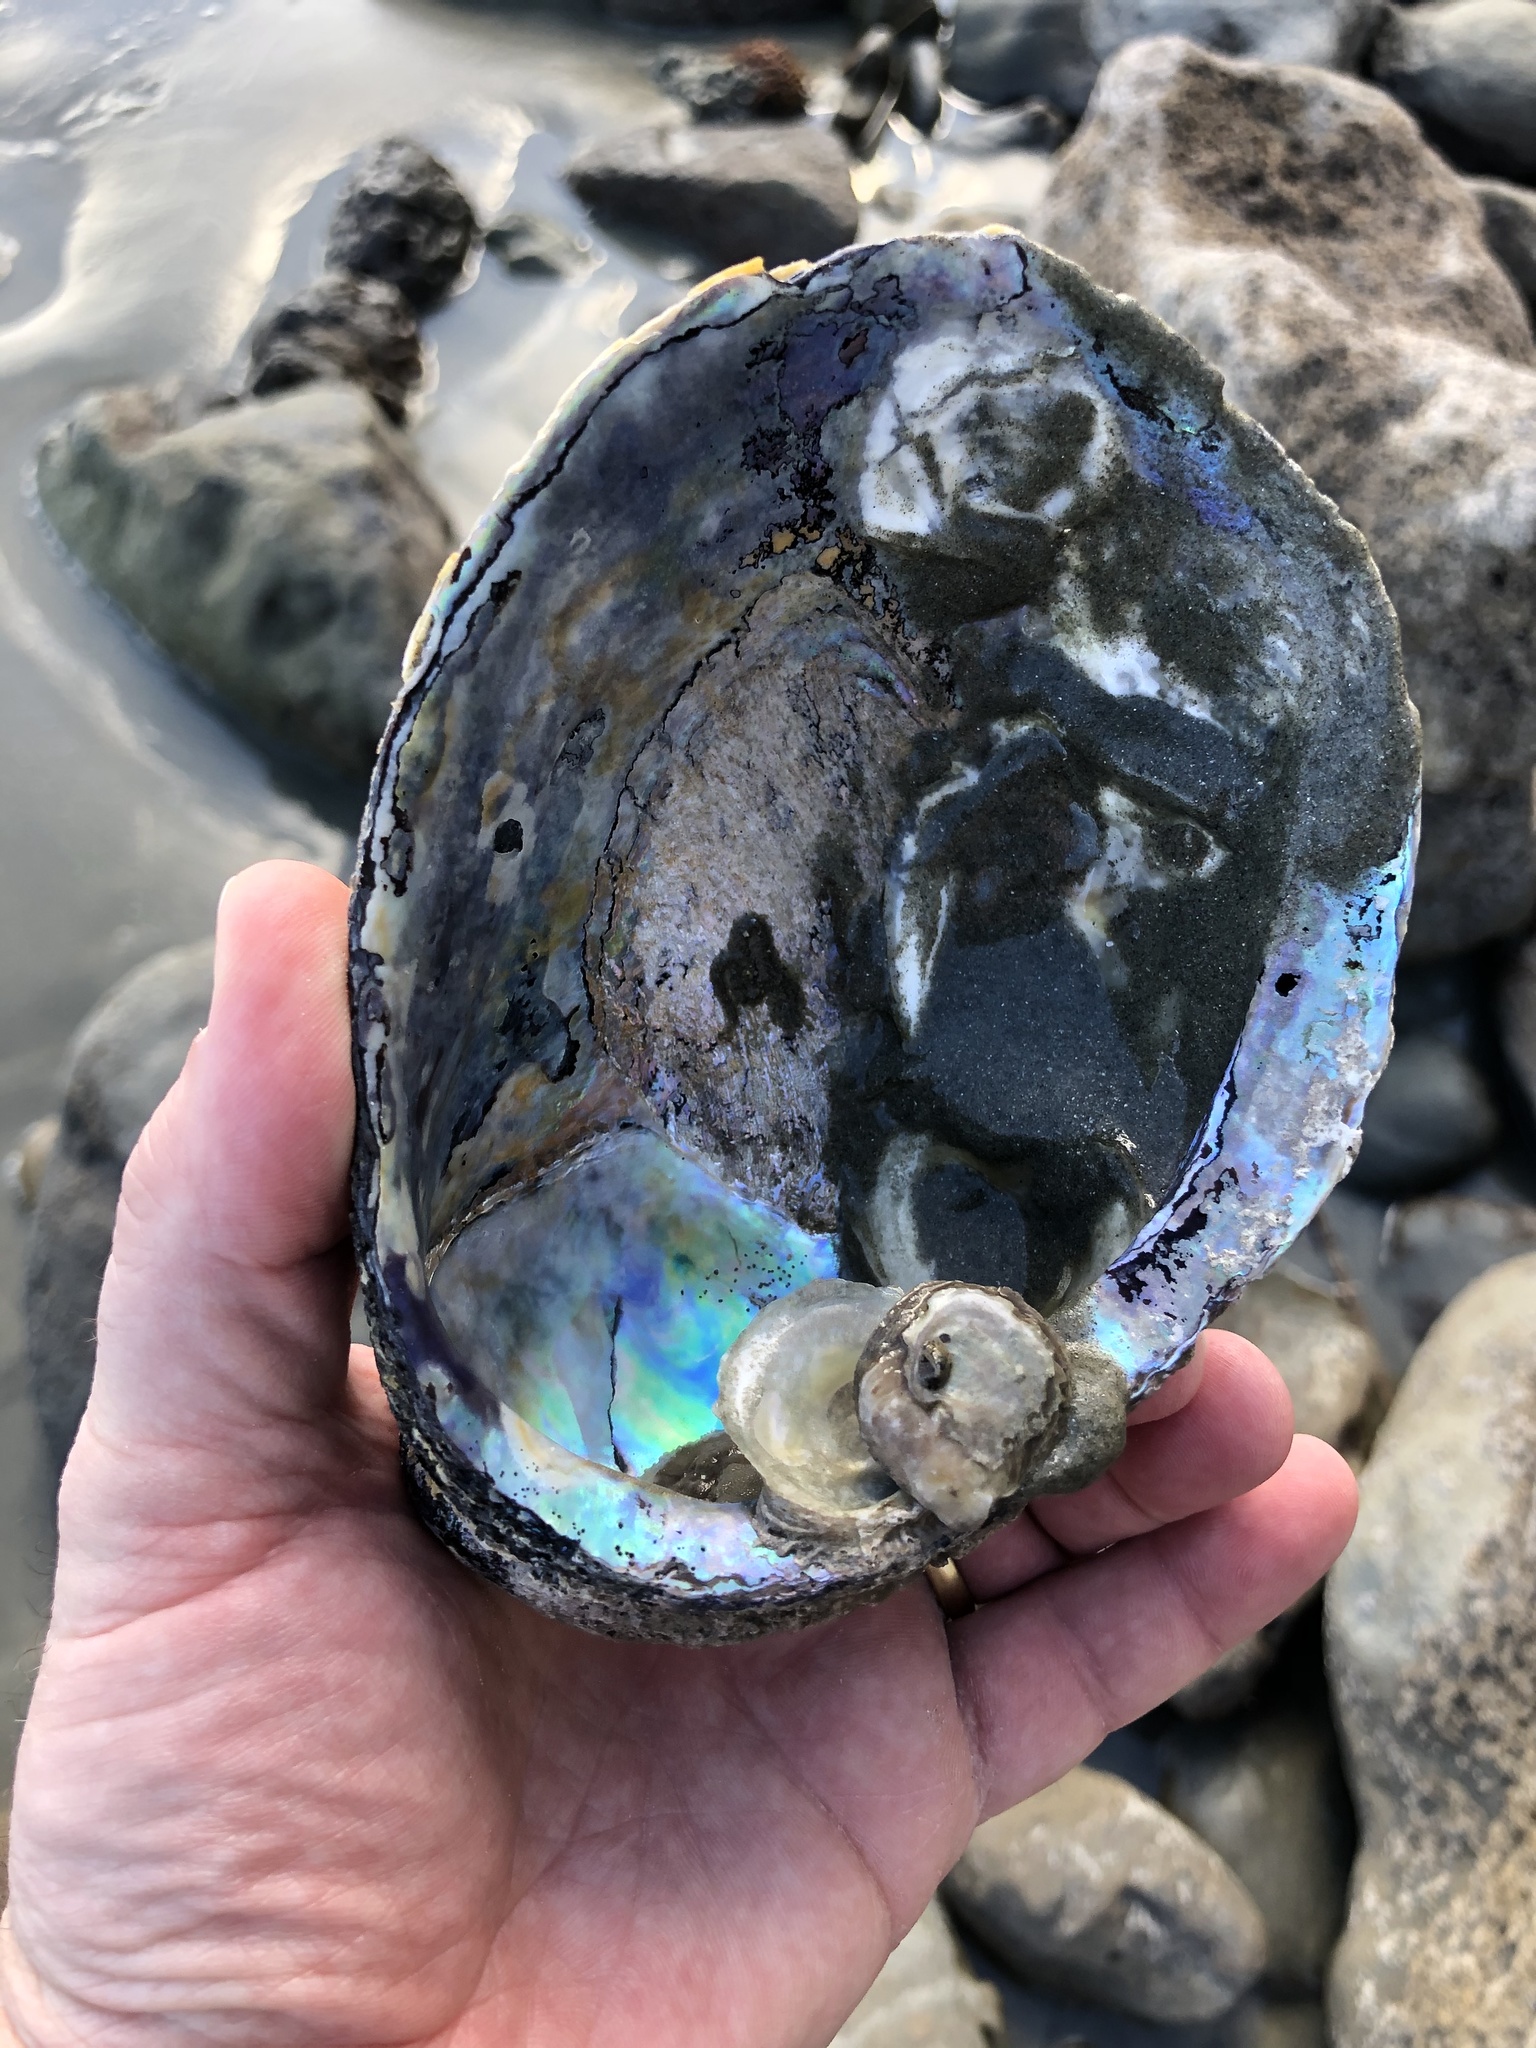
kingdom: Animalia
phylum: Mollusca
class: Gastropoda
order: Lepetellida
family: Haliotidae
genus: Haliotis
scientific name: Haliotis iris
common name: Abalone
